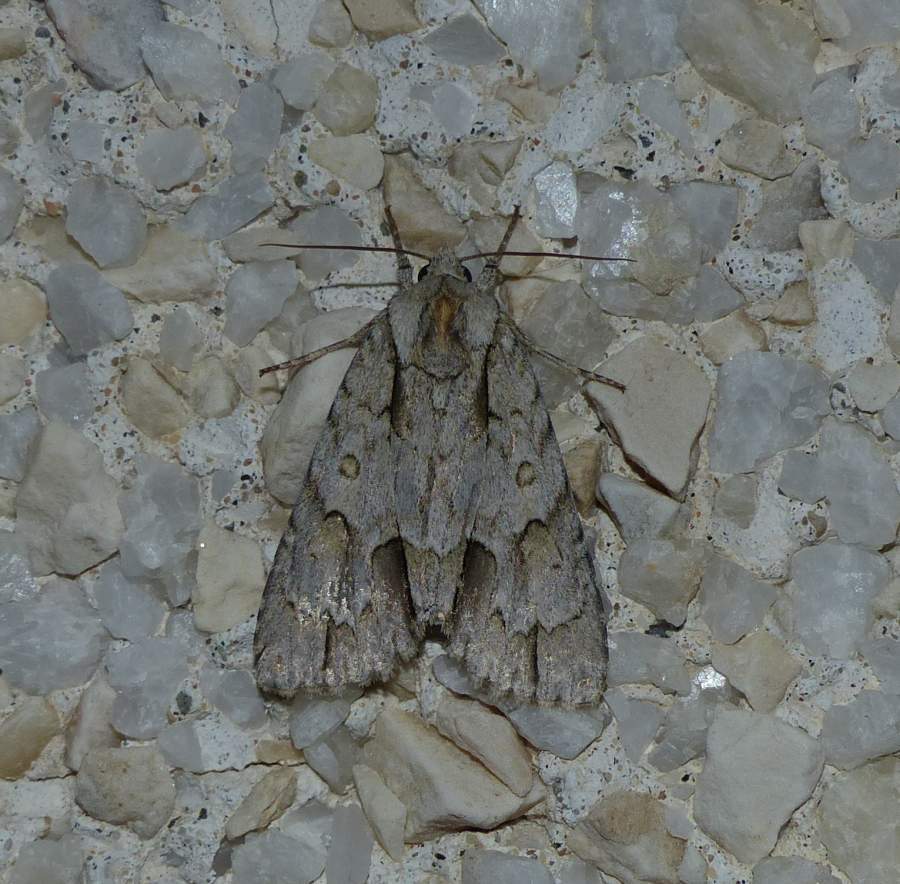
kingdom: Animalia
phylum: Arthropoda
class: Insecta
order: Lepidoptera
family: Noctuidae
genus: Acronicta
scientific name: Acronicta morula
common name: Ochre dagger
